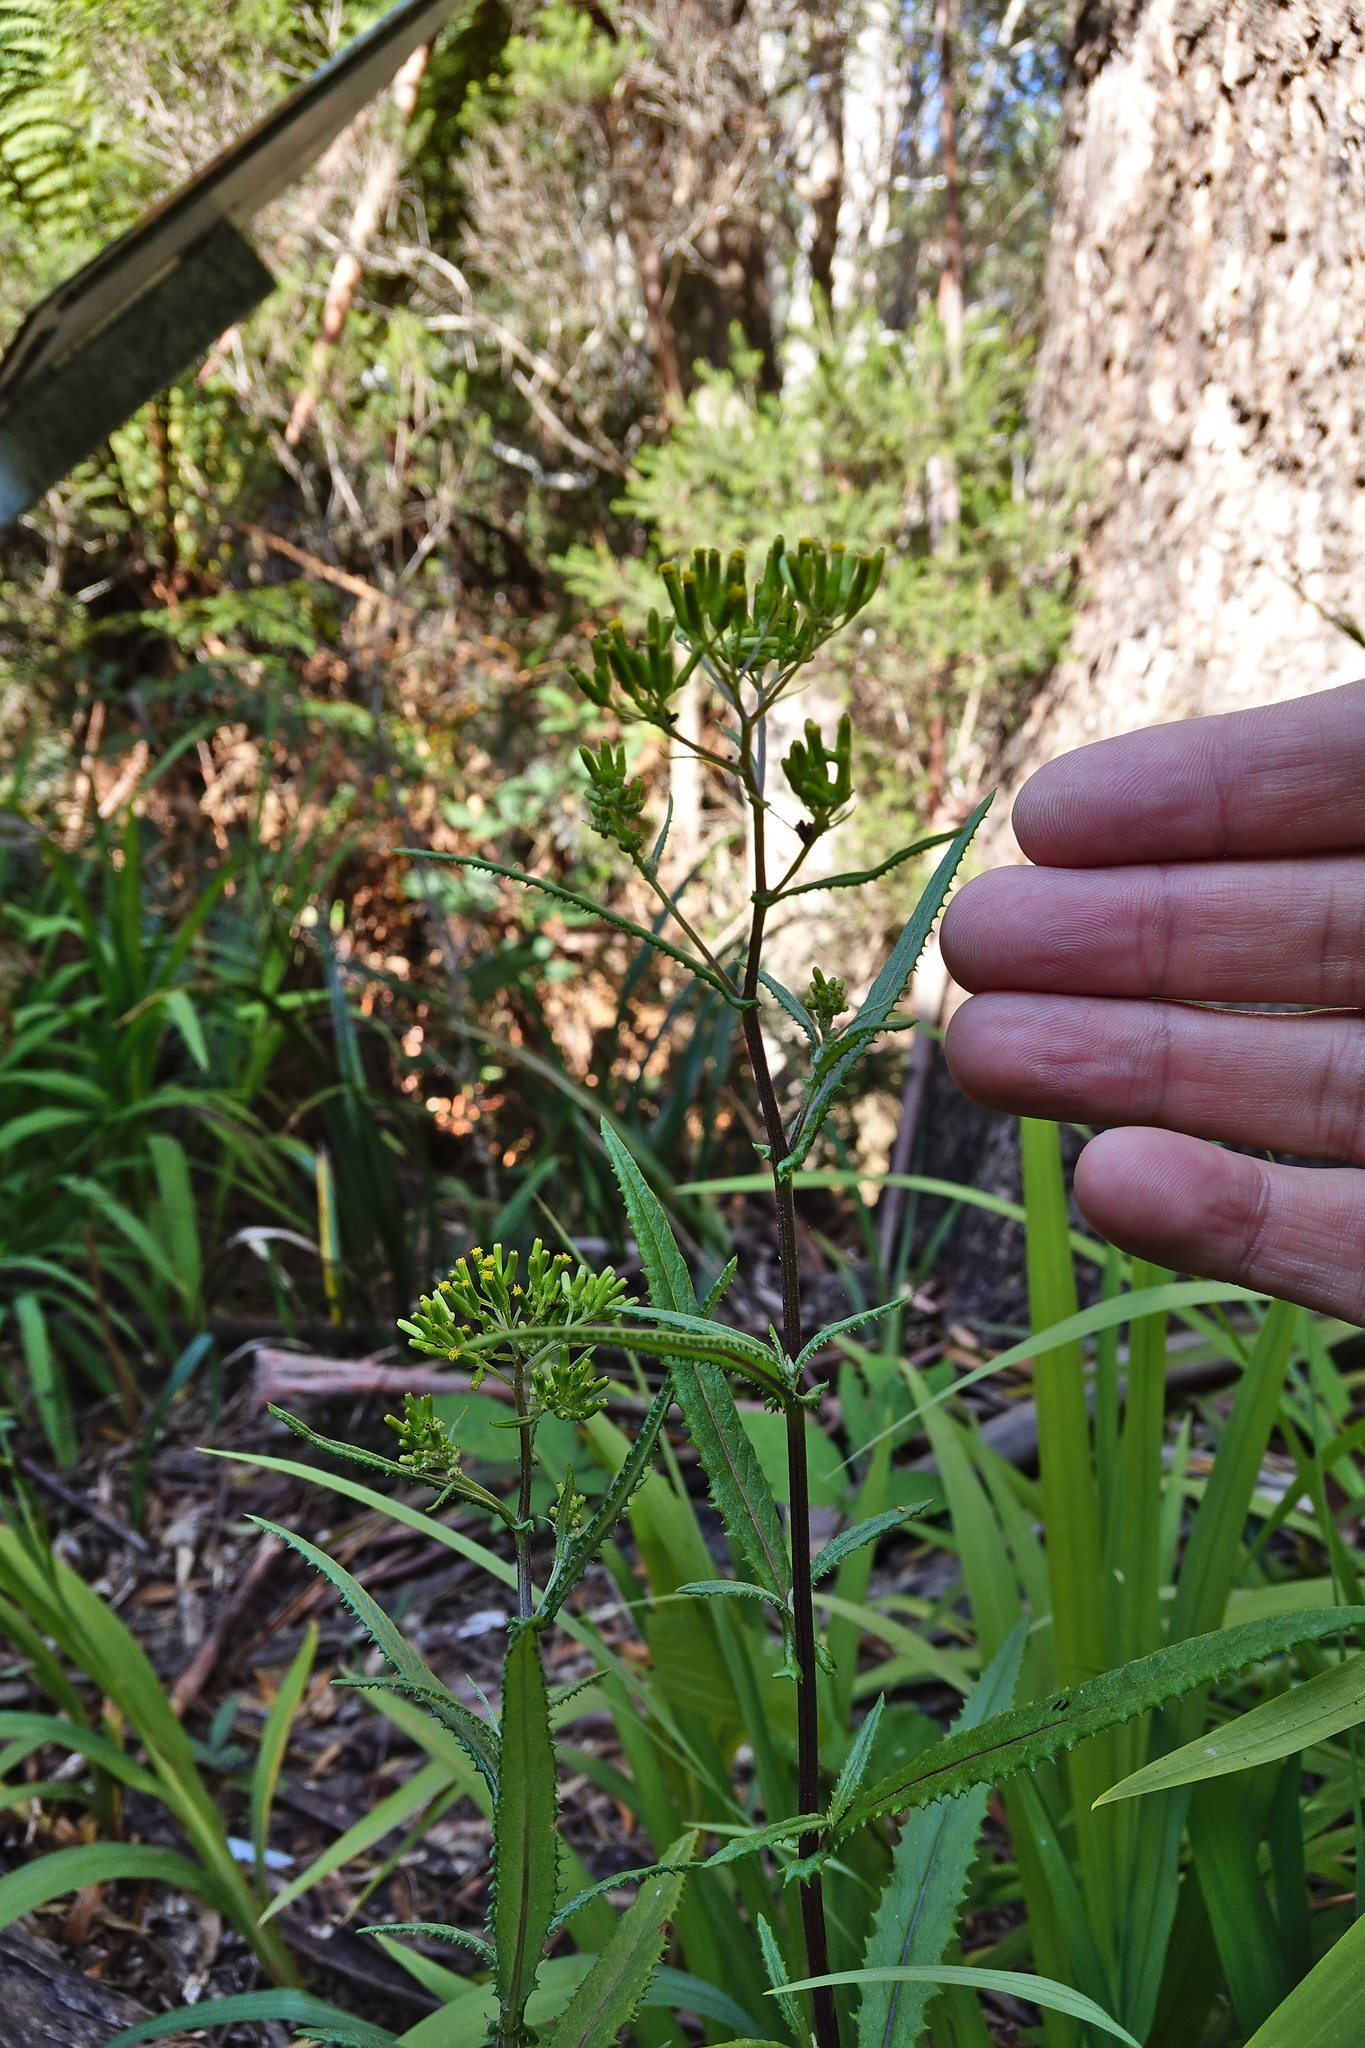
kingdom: Plantae
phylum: Tracheophyta
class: Magnoliopsida
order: Asterales
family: Asteraceae
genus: Senecio
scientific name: Senecio minimus
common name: Toothed fireweed
